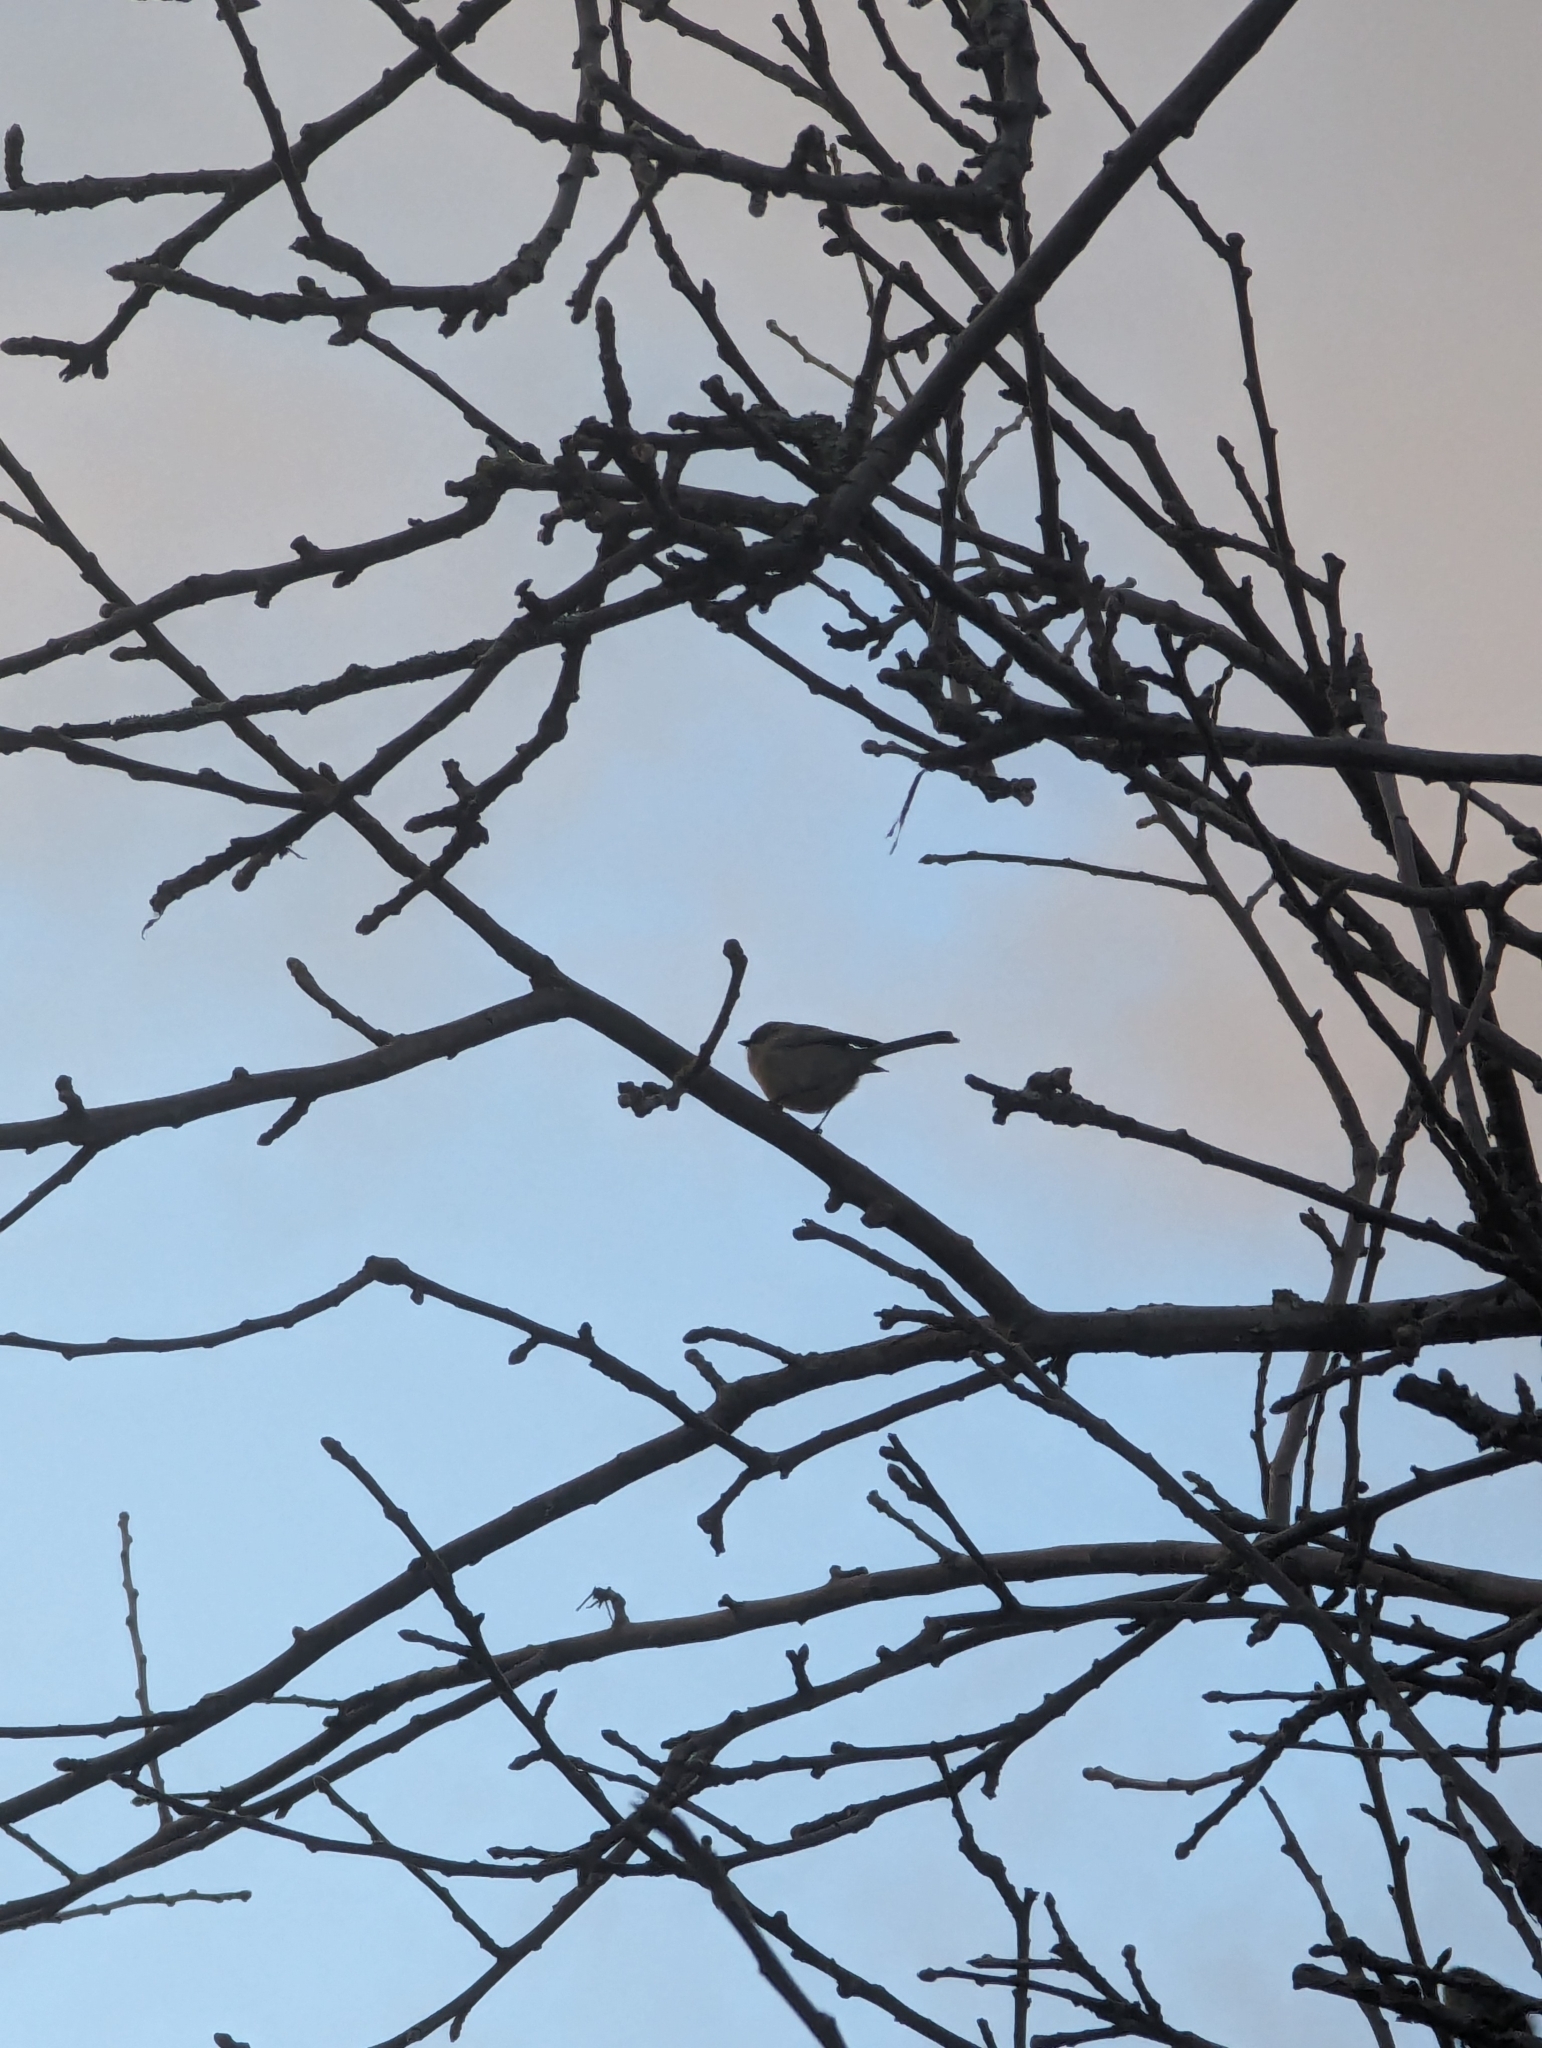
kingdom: Animalia
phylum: Chordata
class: Aves
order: Passeriformes
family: Aegithalidae
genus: Psaltriparus
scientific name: Psaltriparus minimus
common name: American bushtit
